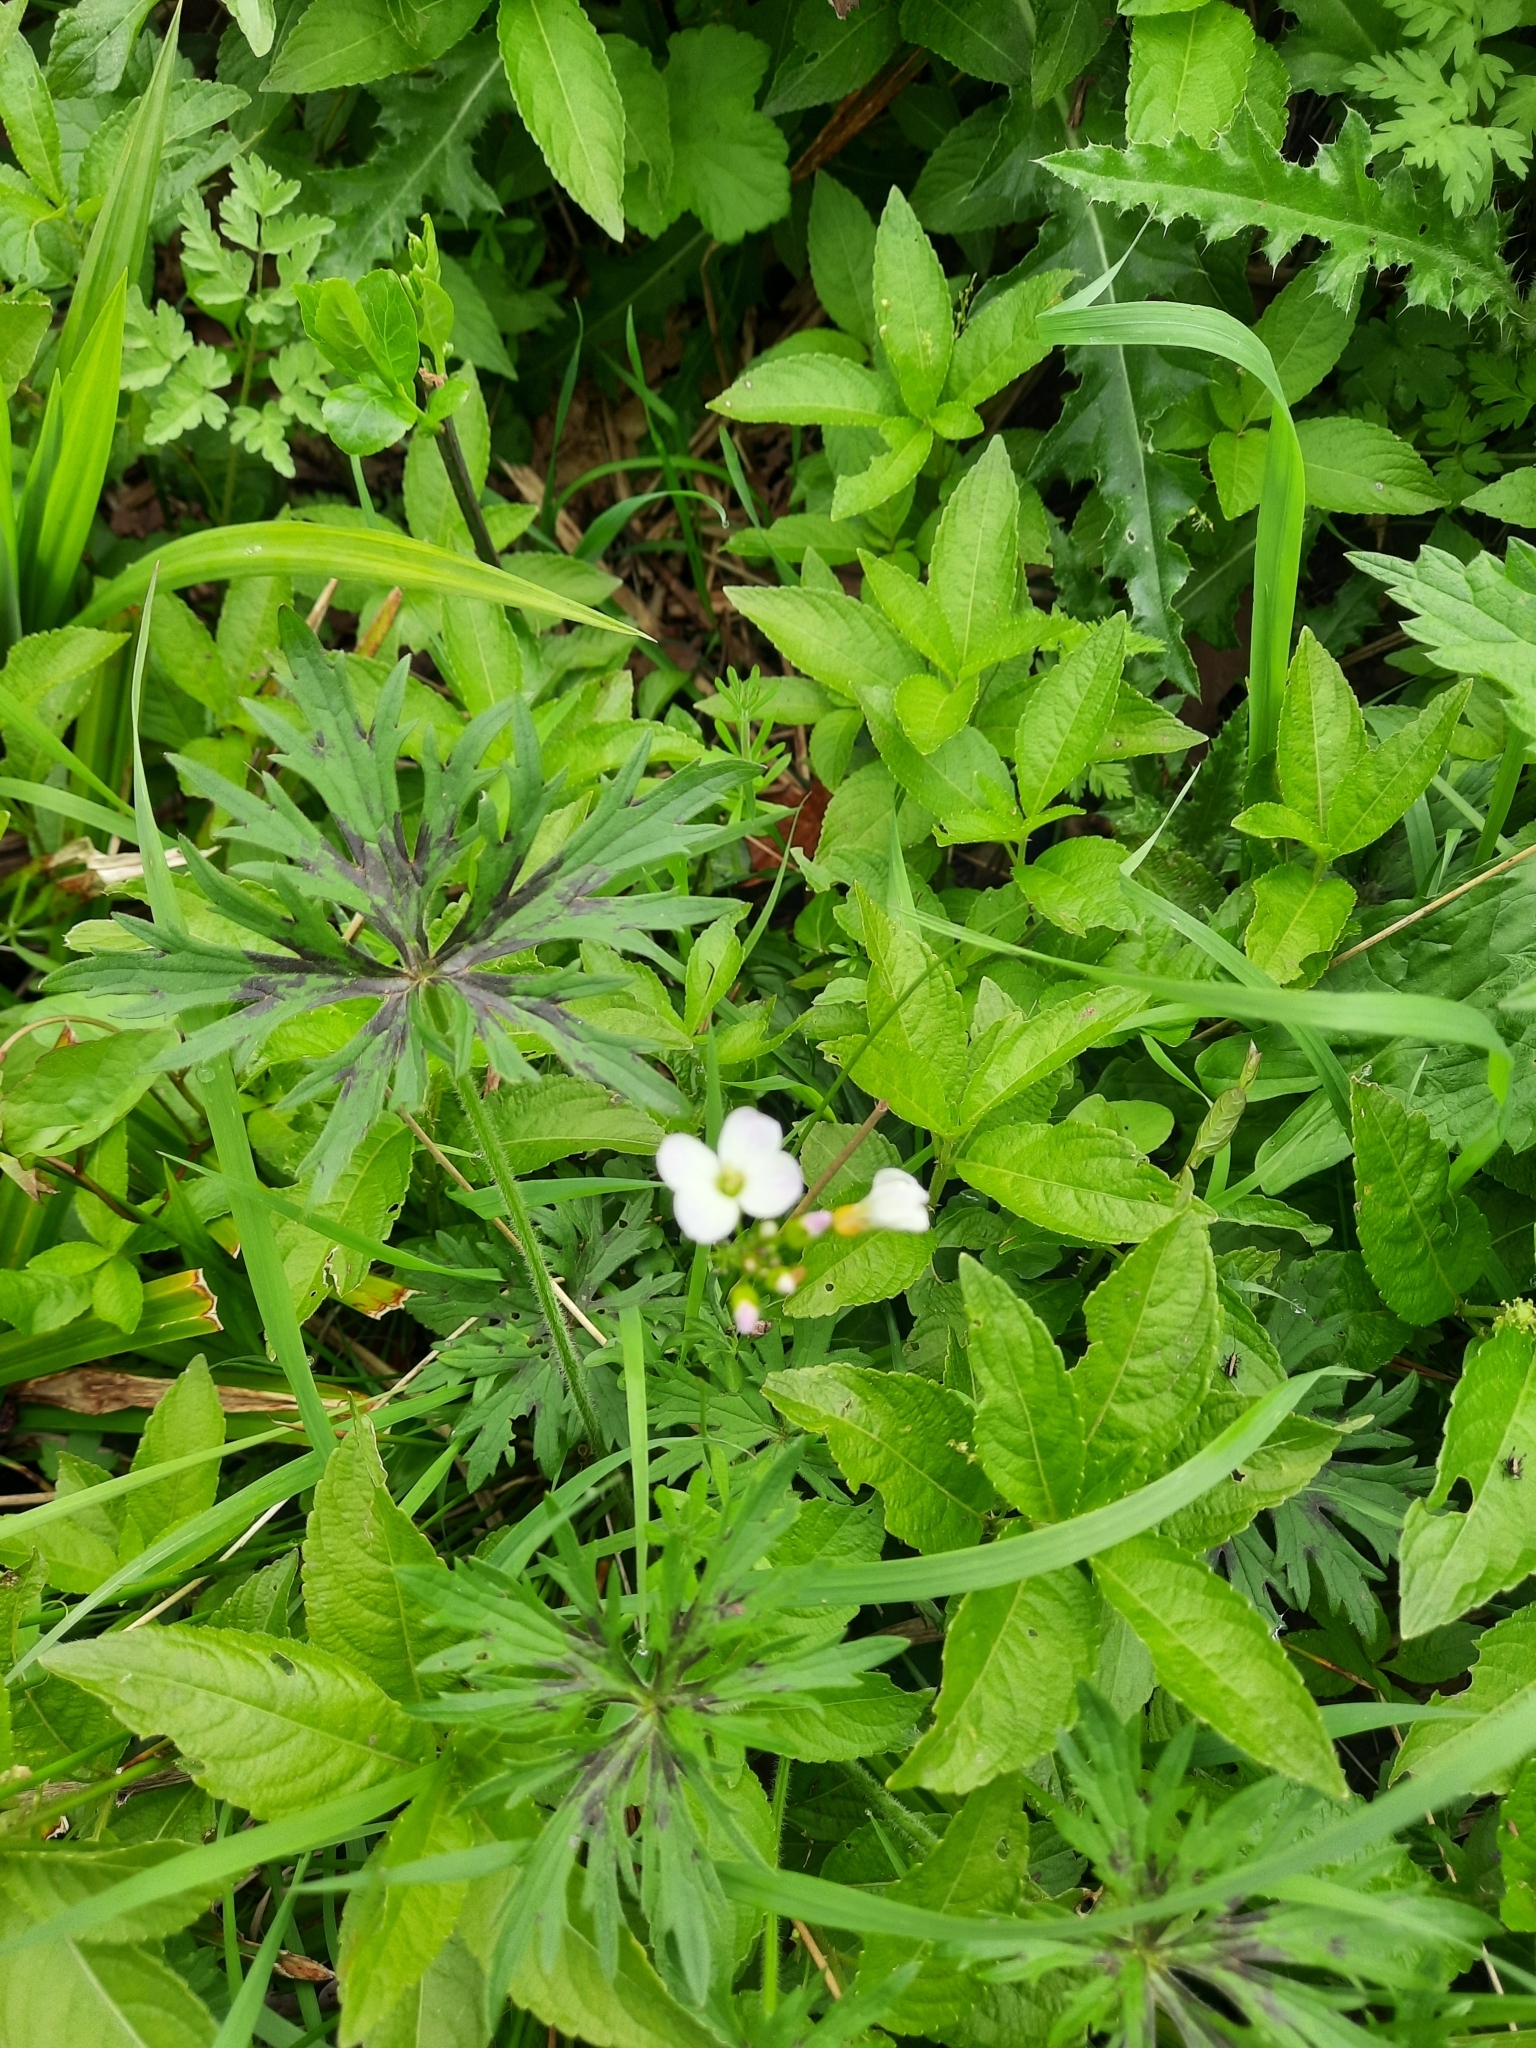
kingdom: Plantae
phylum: Tracheophyta
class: Magnoliopsida
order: Brassicales
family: Brassicaceae
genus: Cardamine
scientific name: Cardamine pratensis
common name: Cuckoo flower
